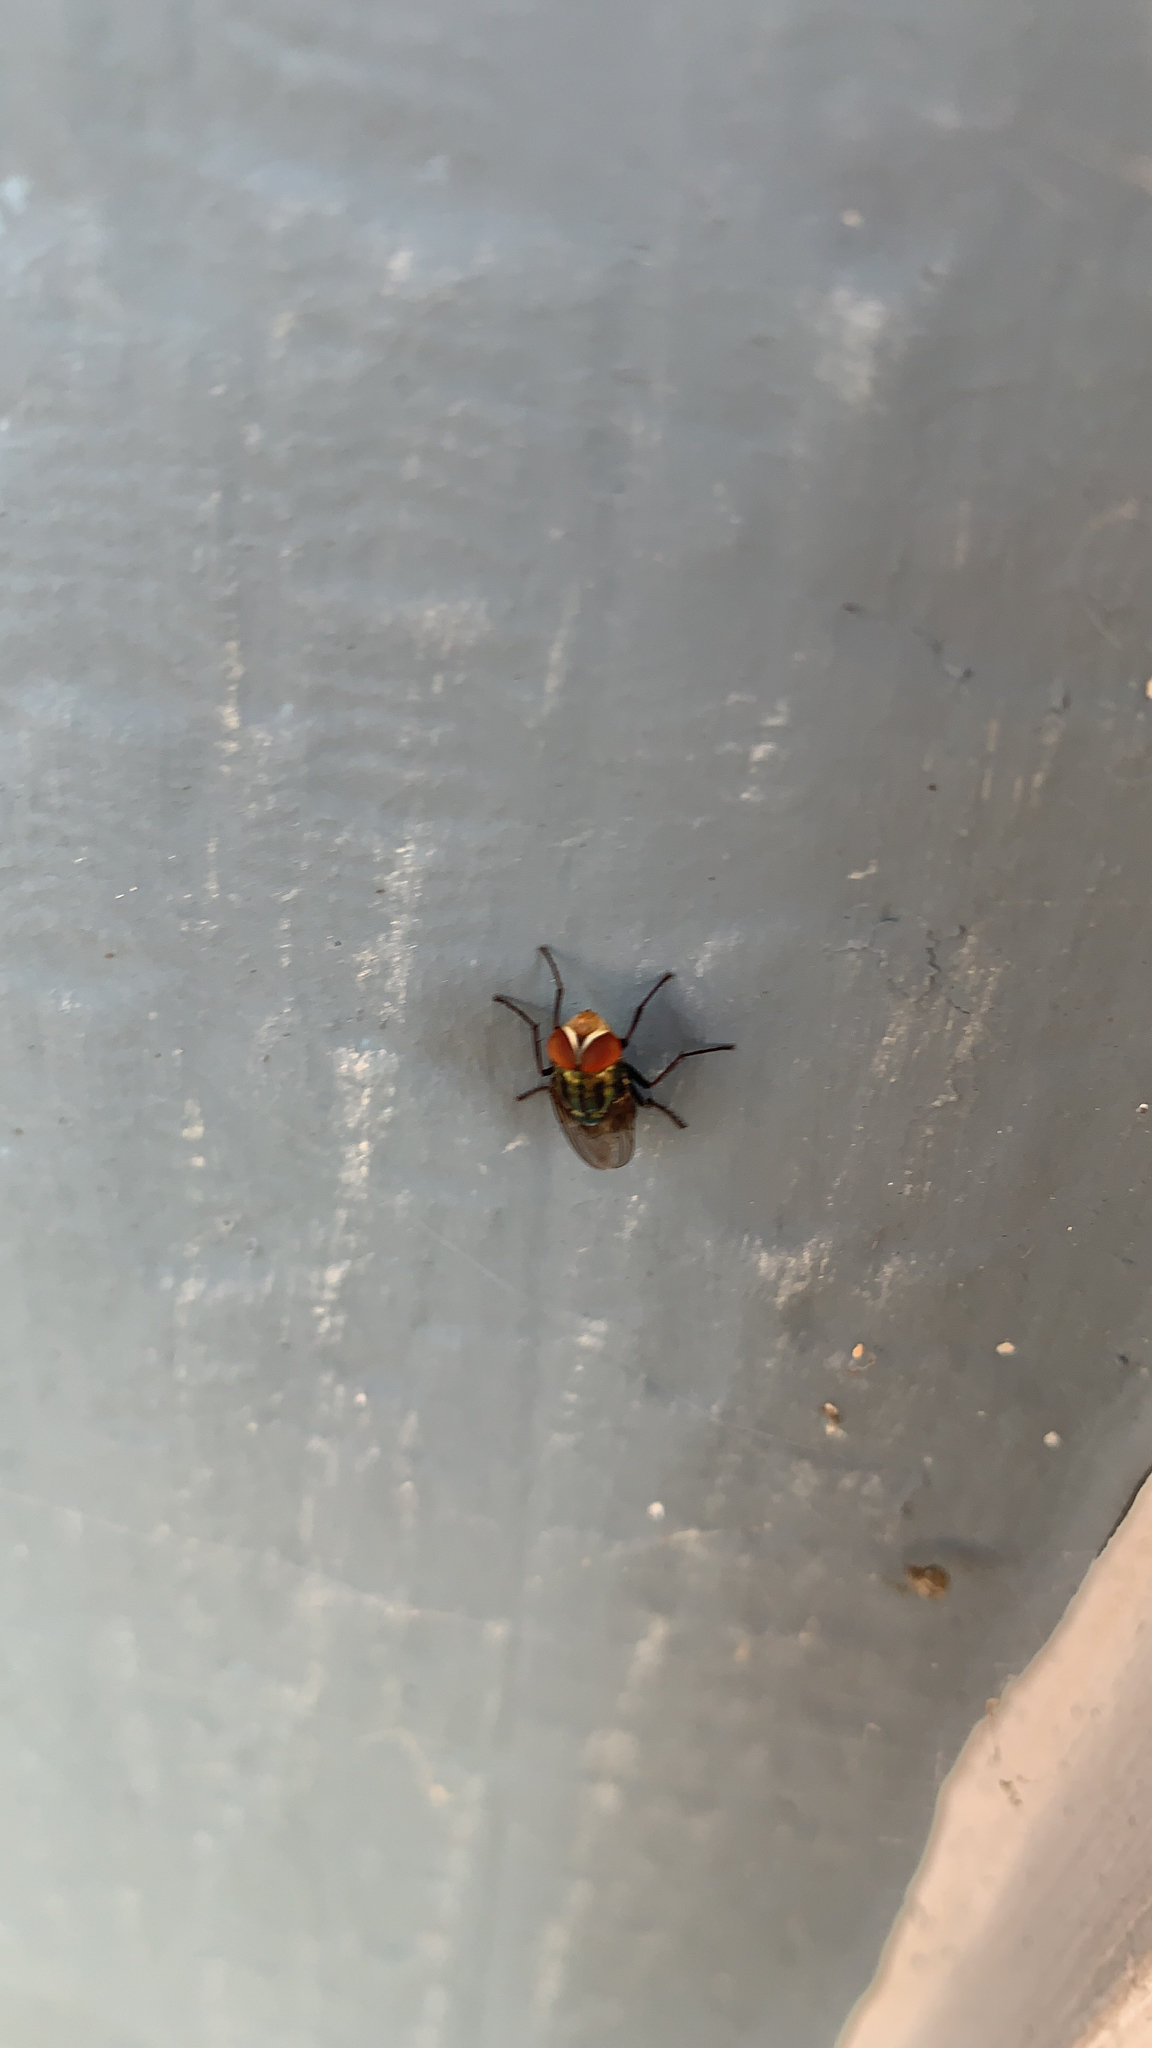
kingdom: Animalia
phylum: Arthropoda
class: Insecta
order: Diptera
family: Calliphoridae
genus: Cochliomyia
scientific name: Cochliomyia macellaria
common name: Secondary screwworm
